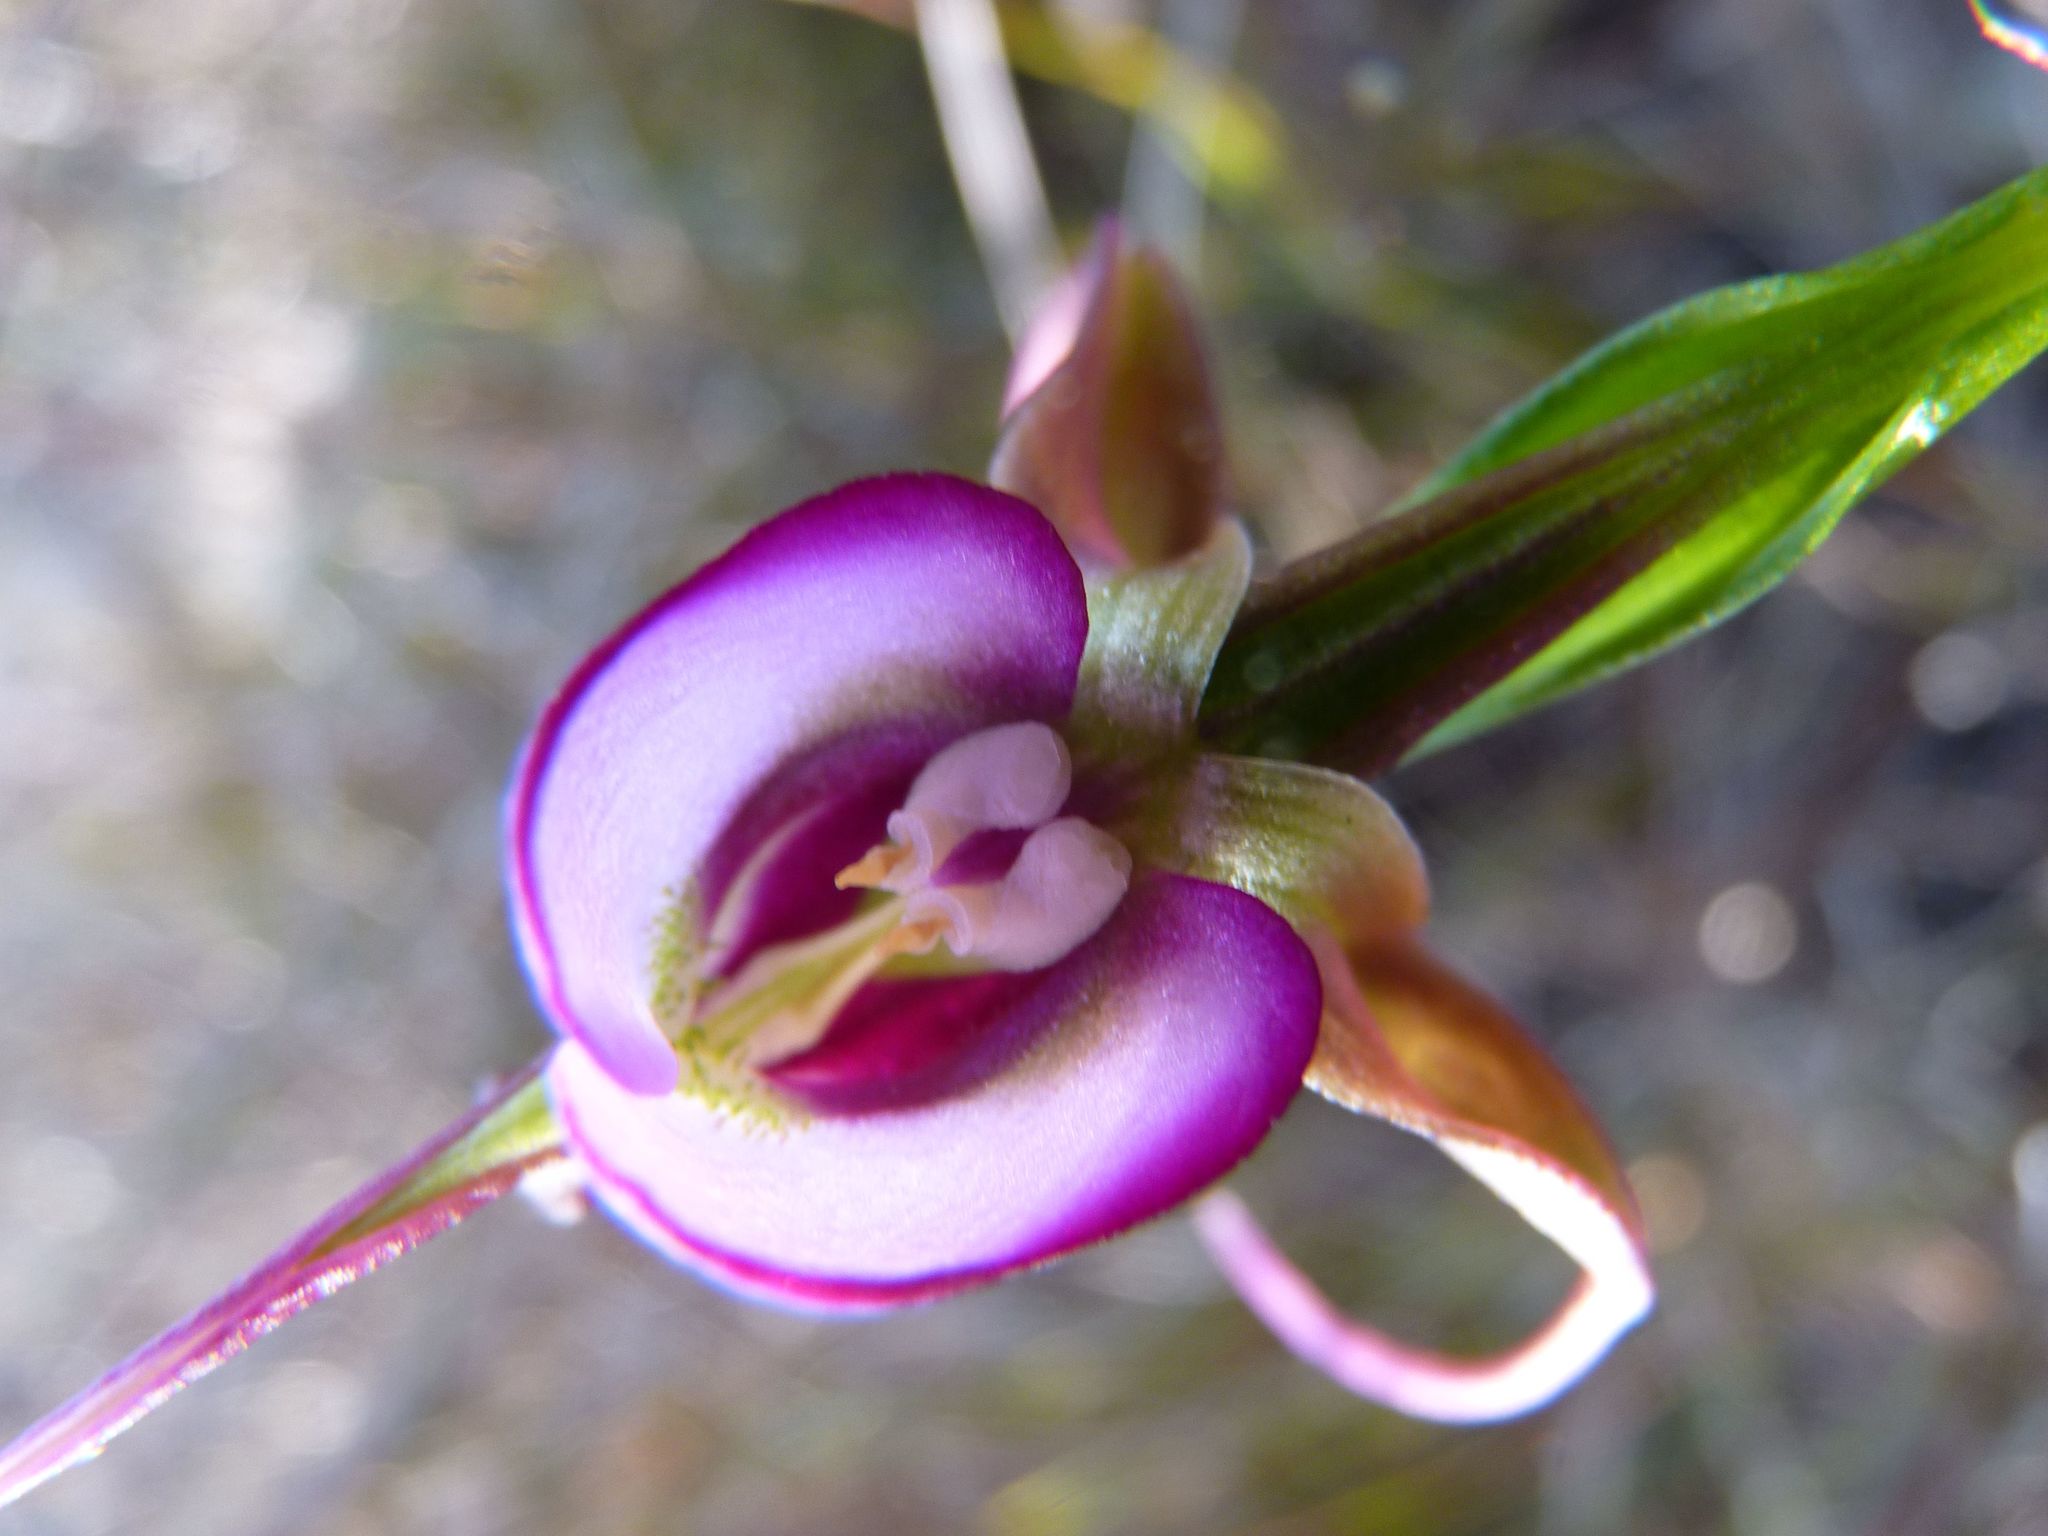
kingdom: Plantae
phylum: Tracheophyta
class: Liliopsida
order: Asparagales
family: Orchidaceae
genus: Disperis
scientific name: Disperis capensis
